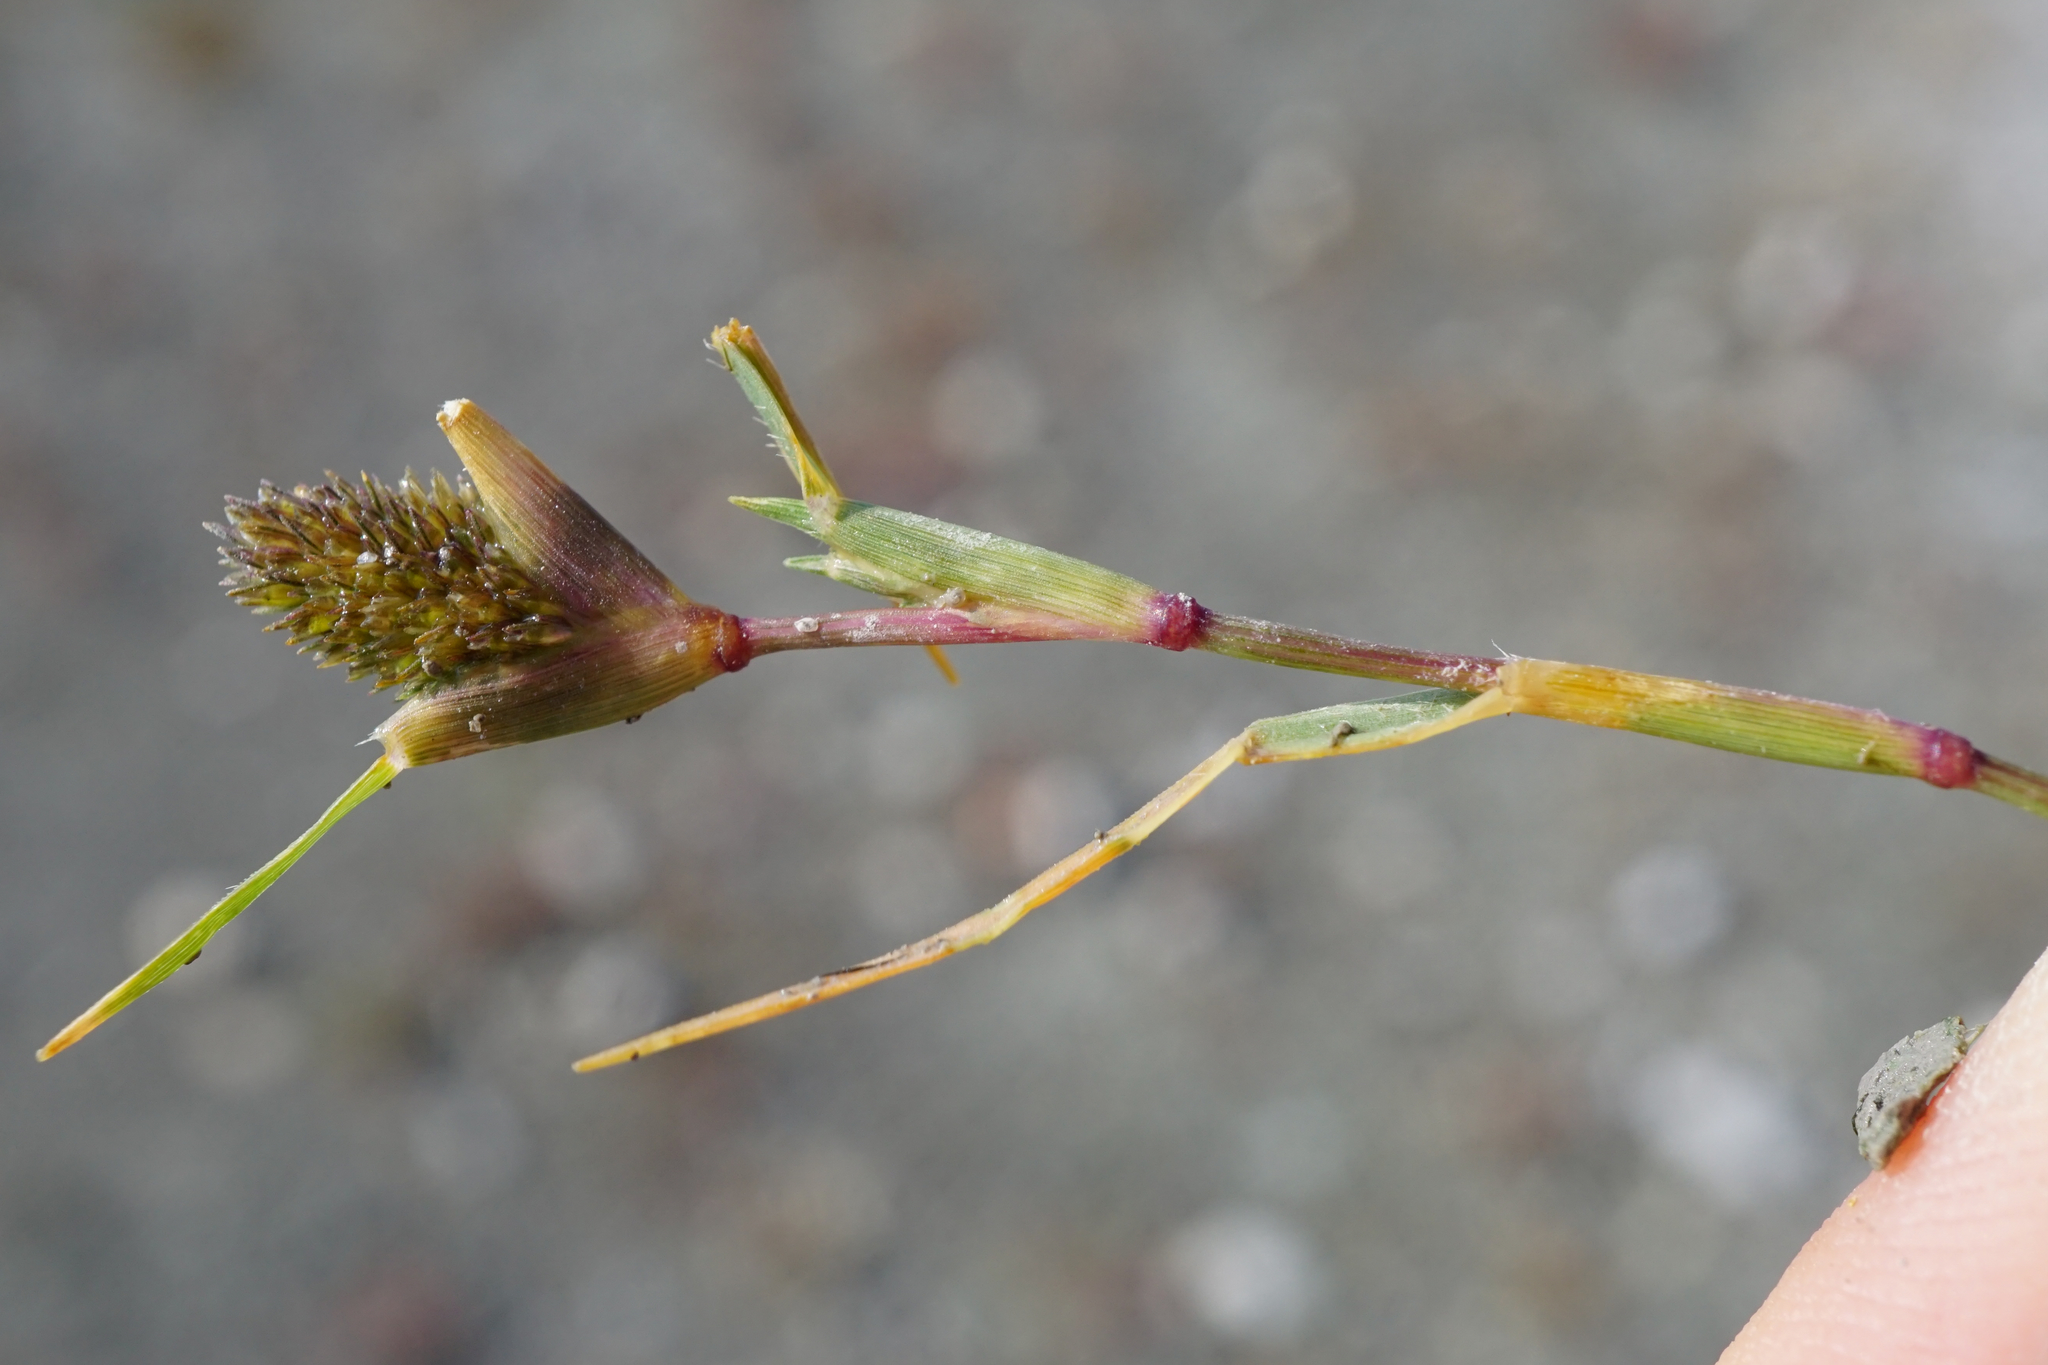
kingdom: Plantae
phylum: Tracheophyta
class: Liliopsida
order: Poales
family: Poaceae
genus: Sporobolus
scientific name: Sporobolus schoenoides
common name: Rush-like timothy
